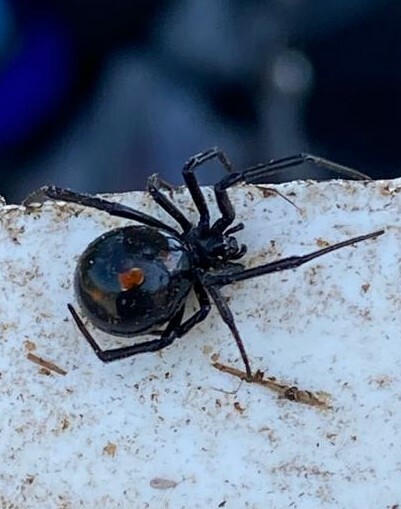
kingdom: Animalia
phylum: Arthropoda
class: Arachnida
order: Araneae
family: Theridiidae
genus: Latrodectus
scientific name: Latrodectus mactans
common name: Cobweb spiders
